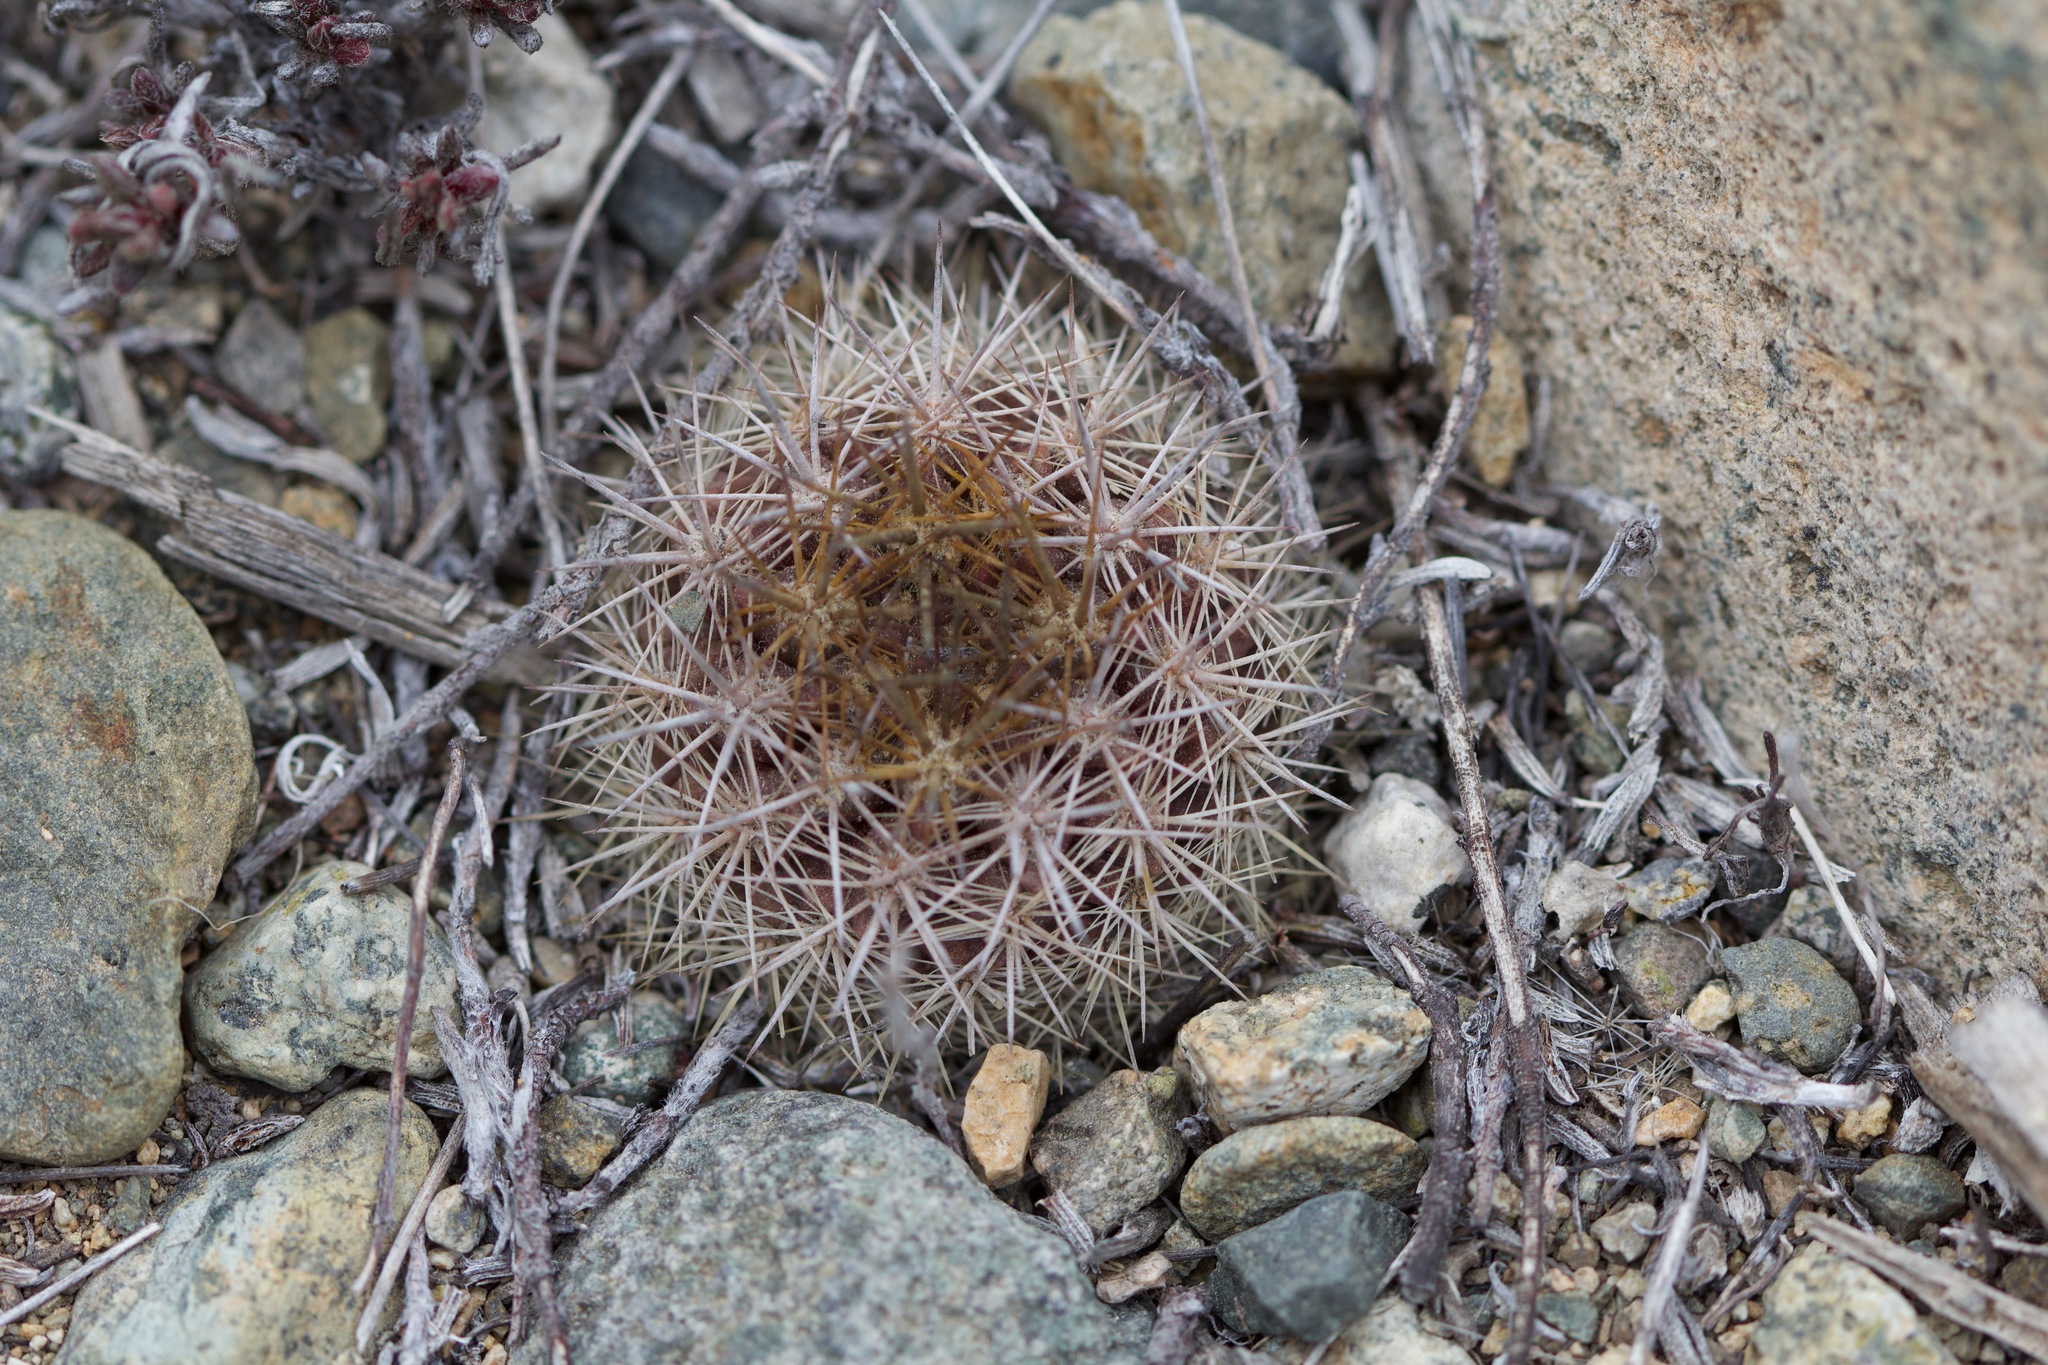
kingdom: Plantae
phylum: Tracheophyta
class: Magnoliopsida
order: Caryophyllales
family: Cactaceae
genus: Eriosyce
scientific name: Eriosyce subgibbosa
